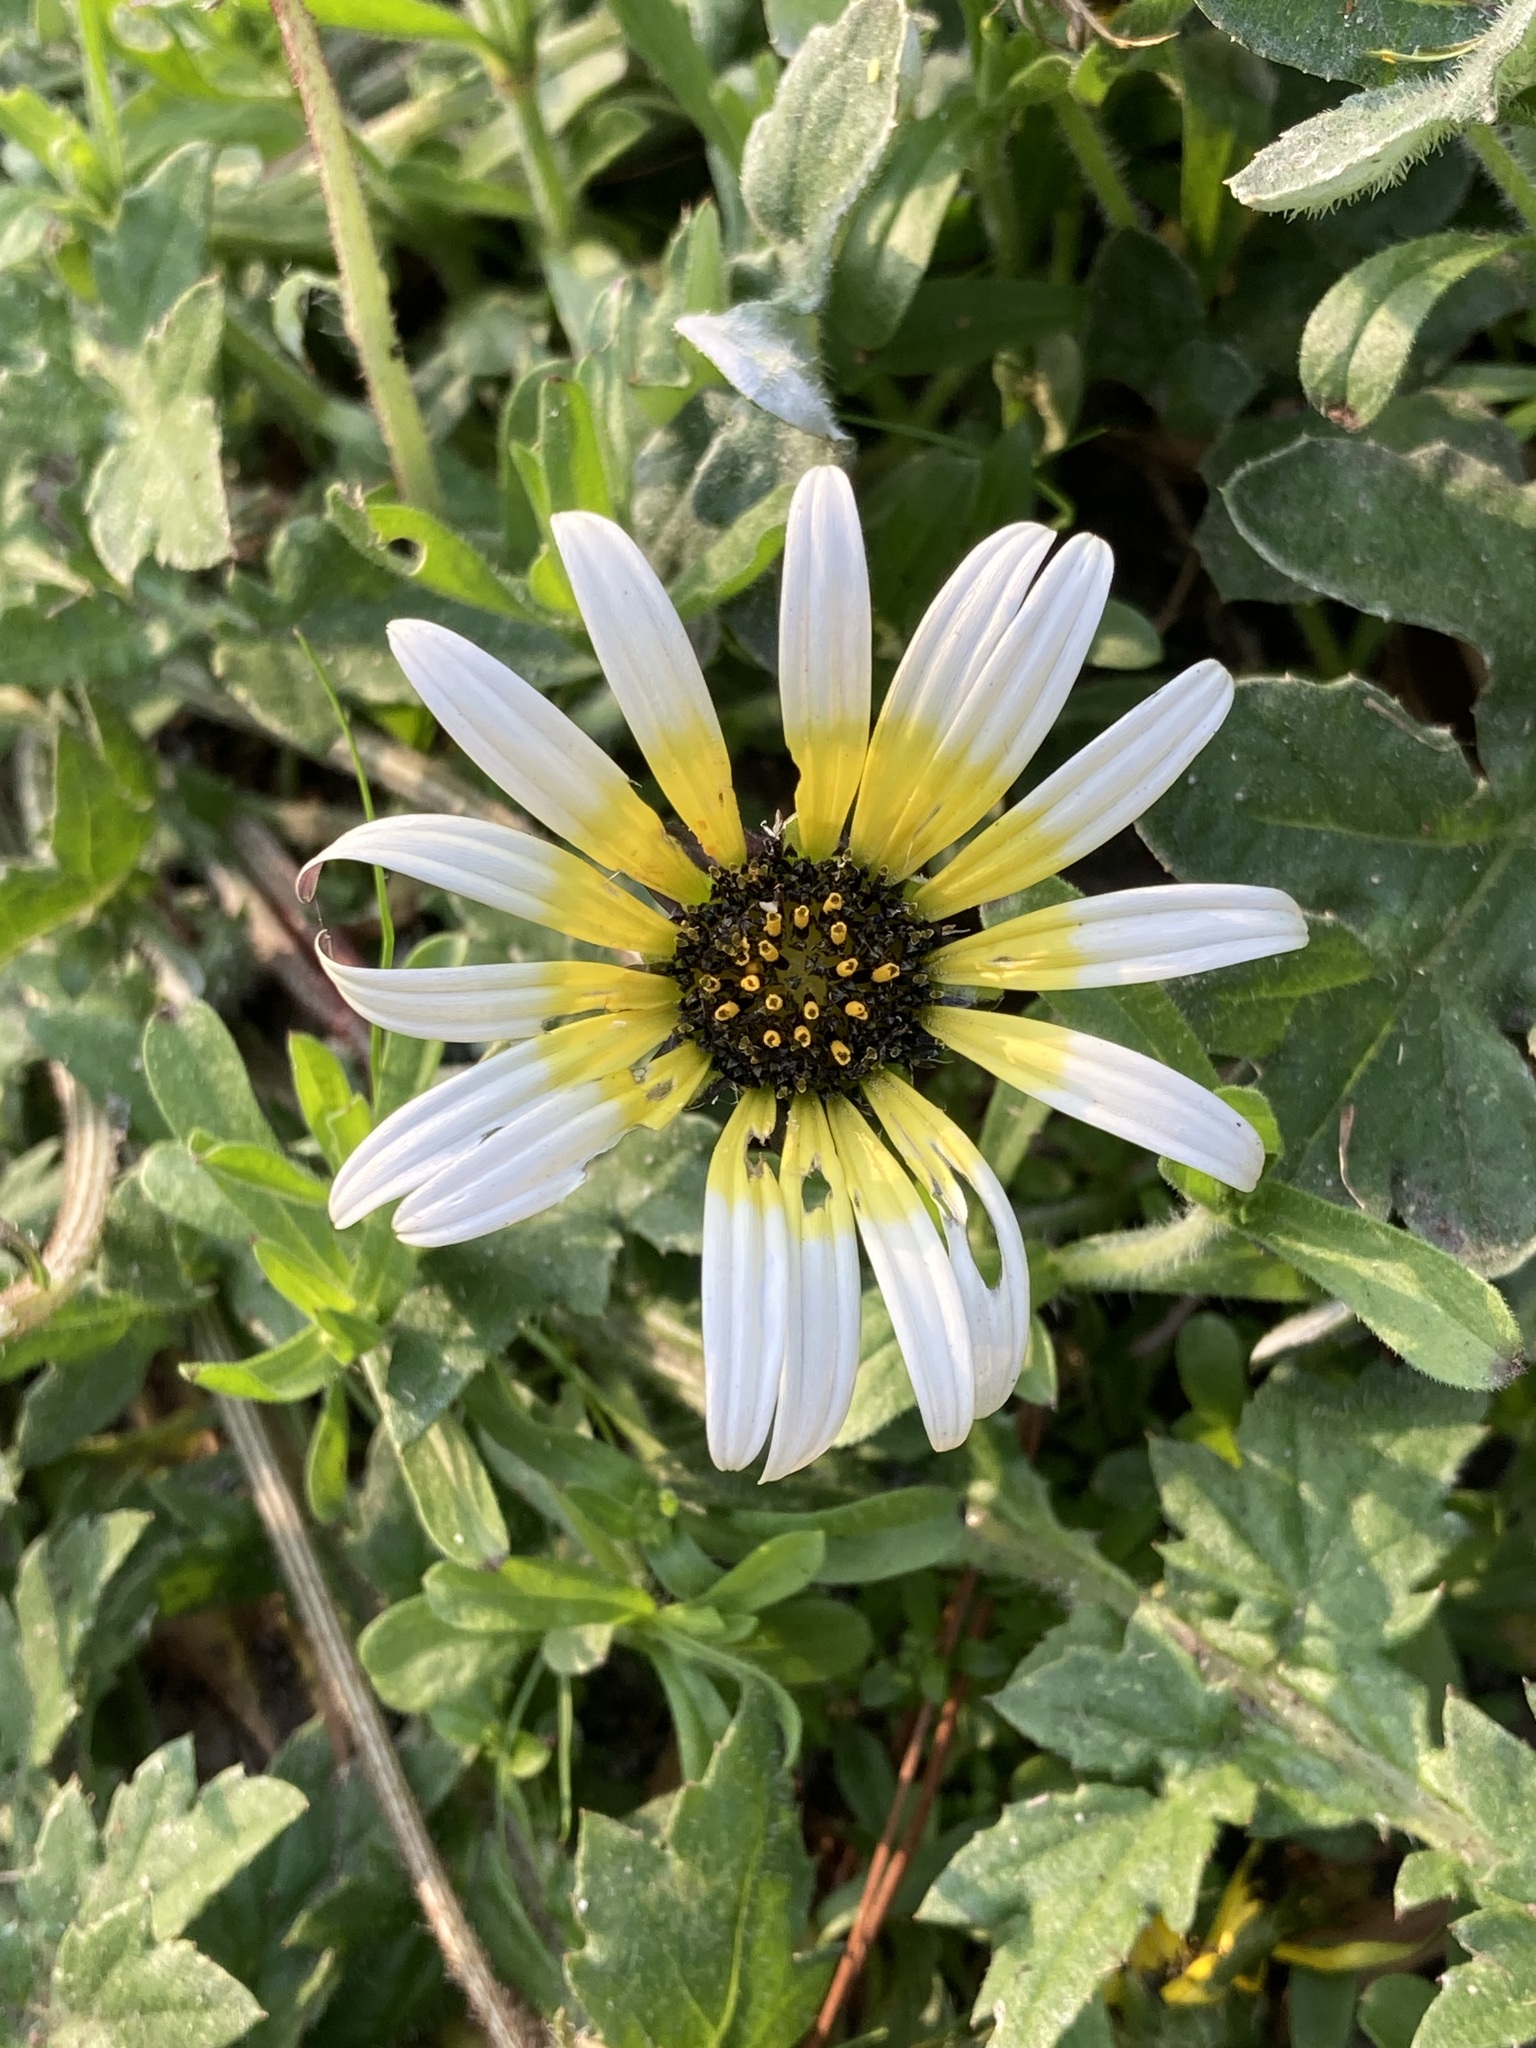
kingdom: Plantae
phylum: Tracheophyta
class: Magnoliopsida
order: Asterales
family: Asteraceae
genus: Arctotheca
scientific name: Arctotheca calendula
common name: Capeweed
